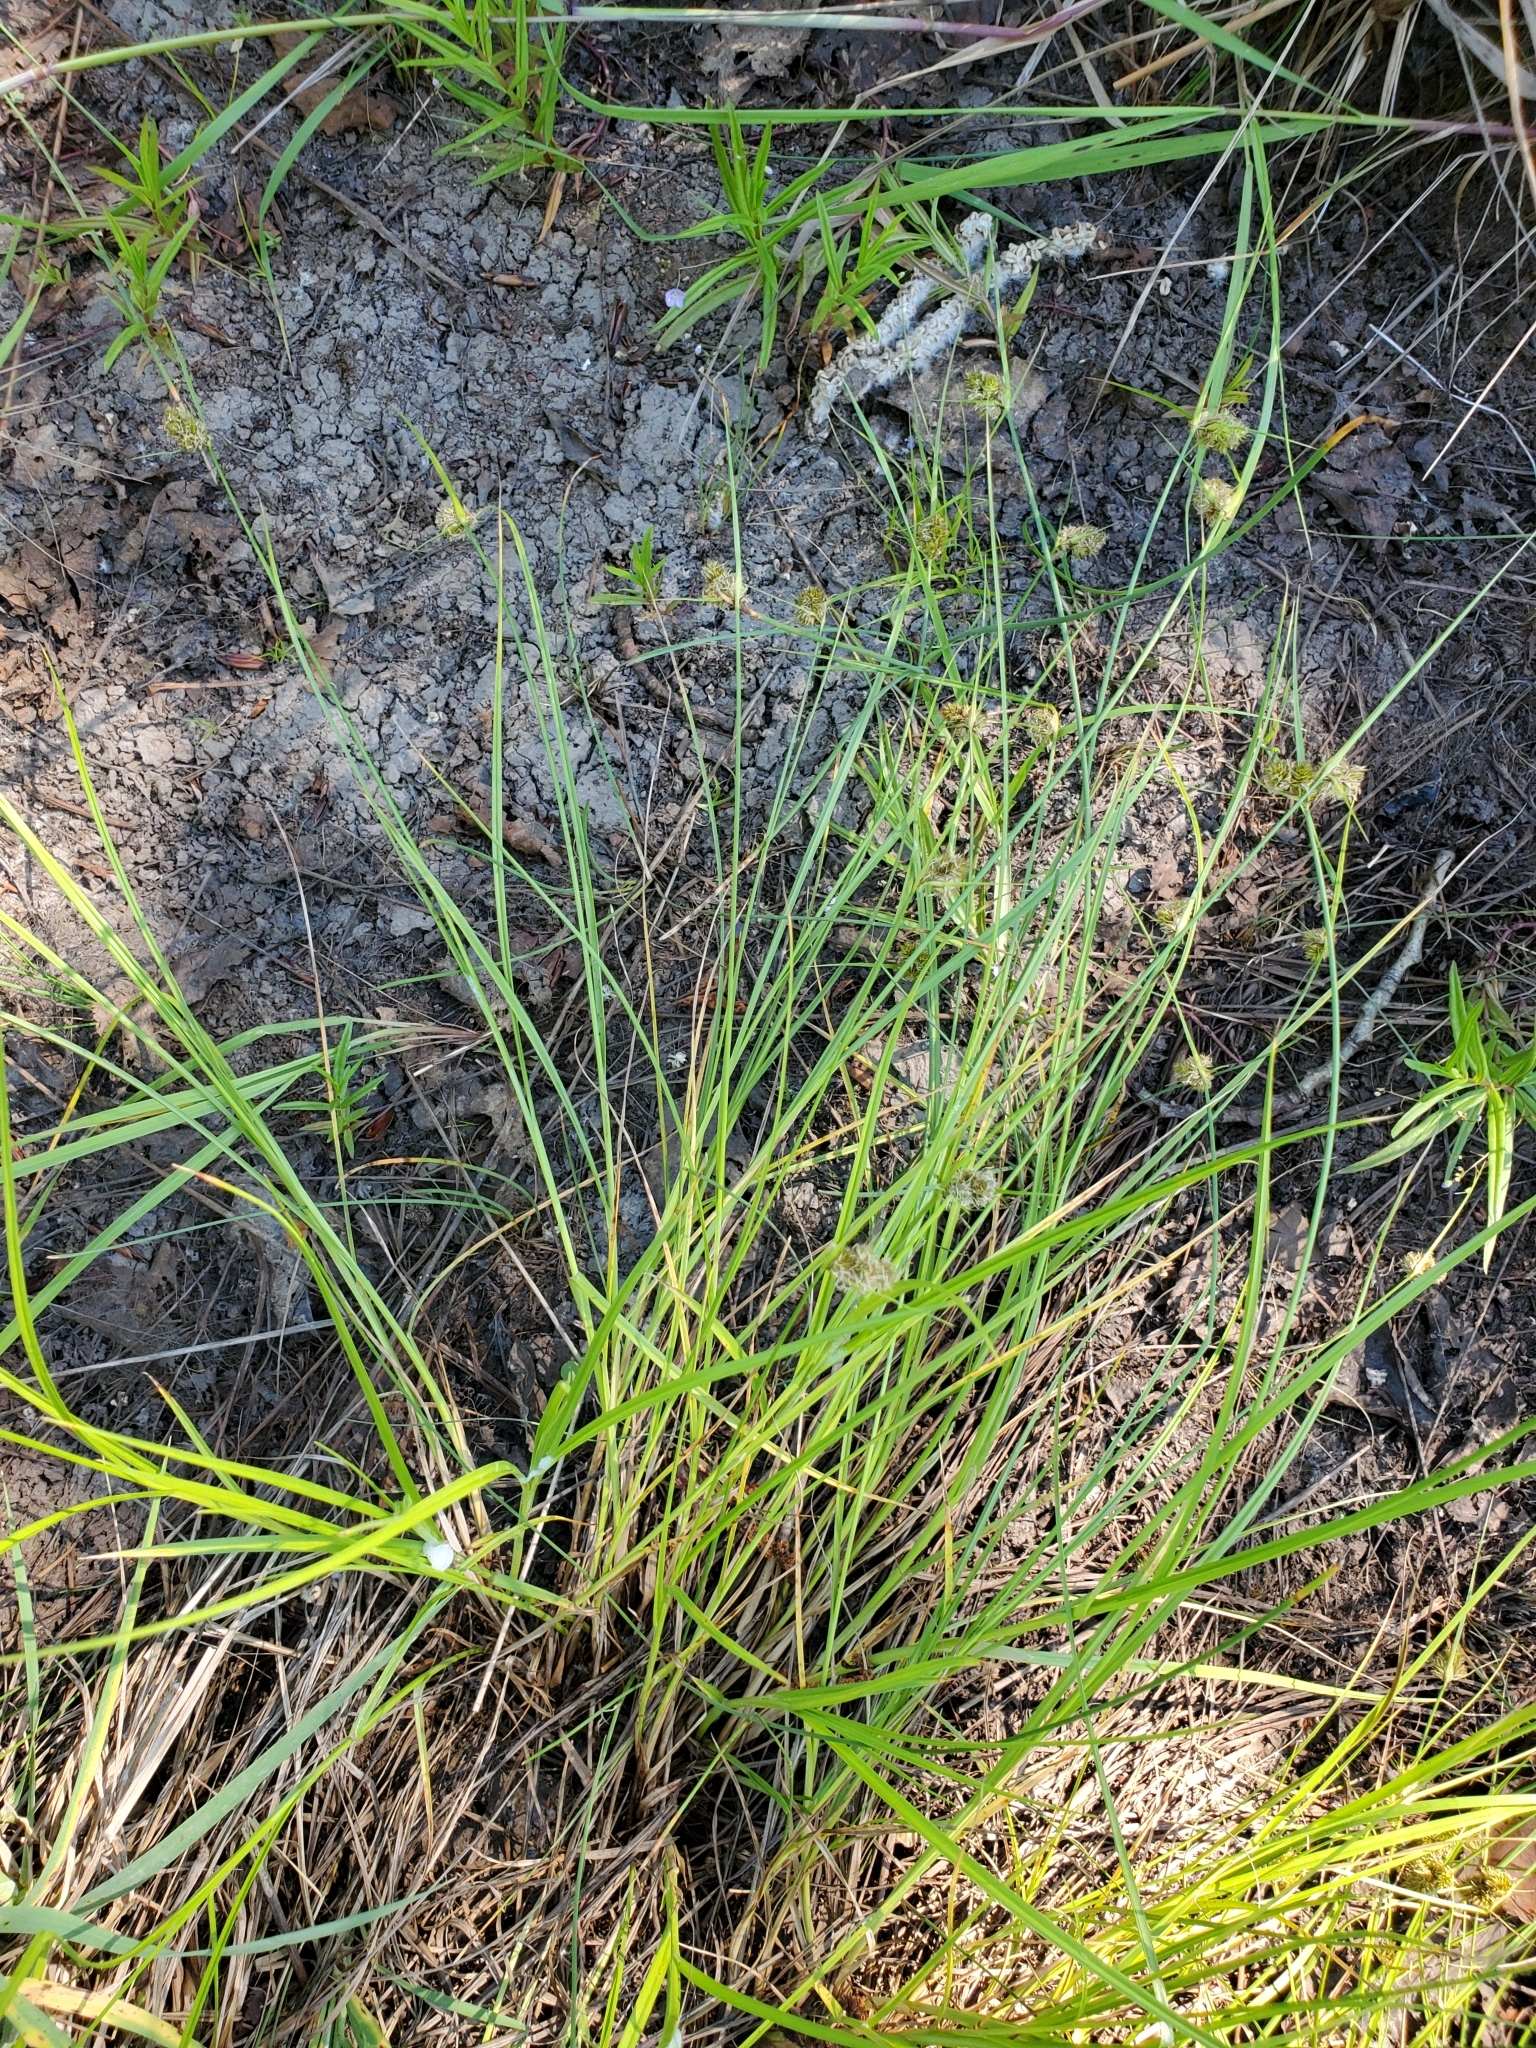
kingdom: Plantae
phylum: Tracheophyta
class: Liliopsida
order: Poales
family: Cyperaceae
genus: Carex
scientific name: Carex unilateralis
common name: Lateral sedge
